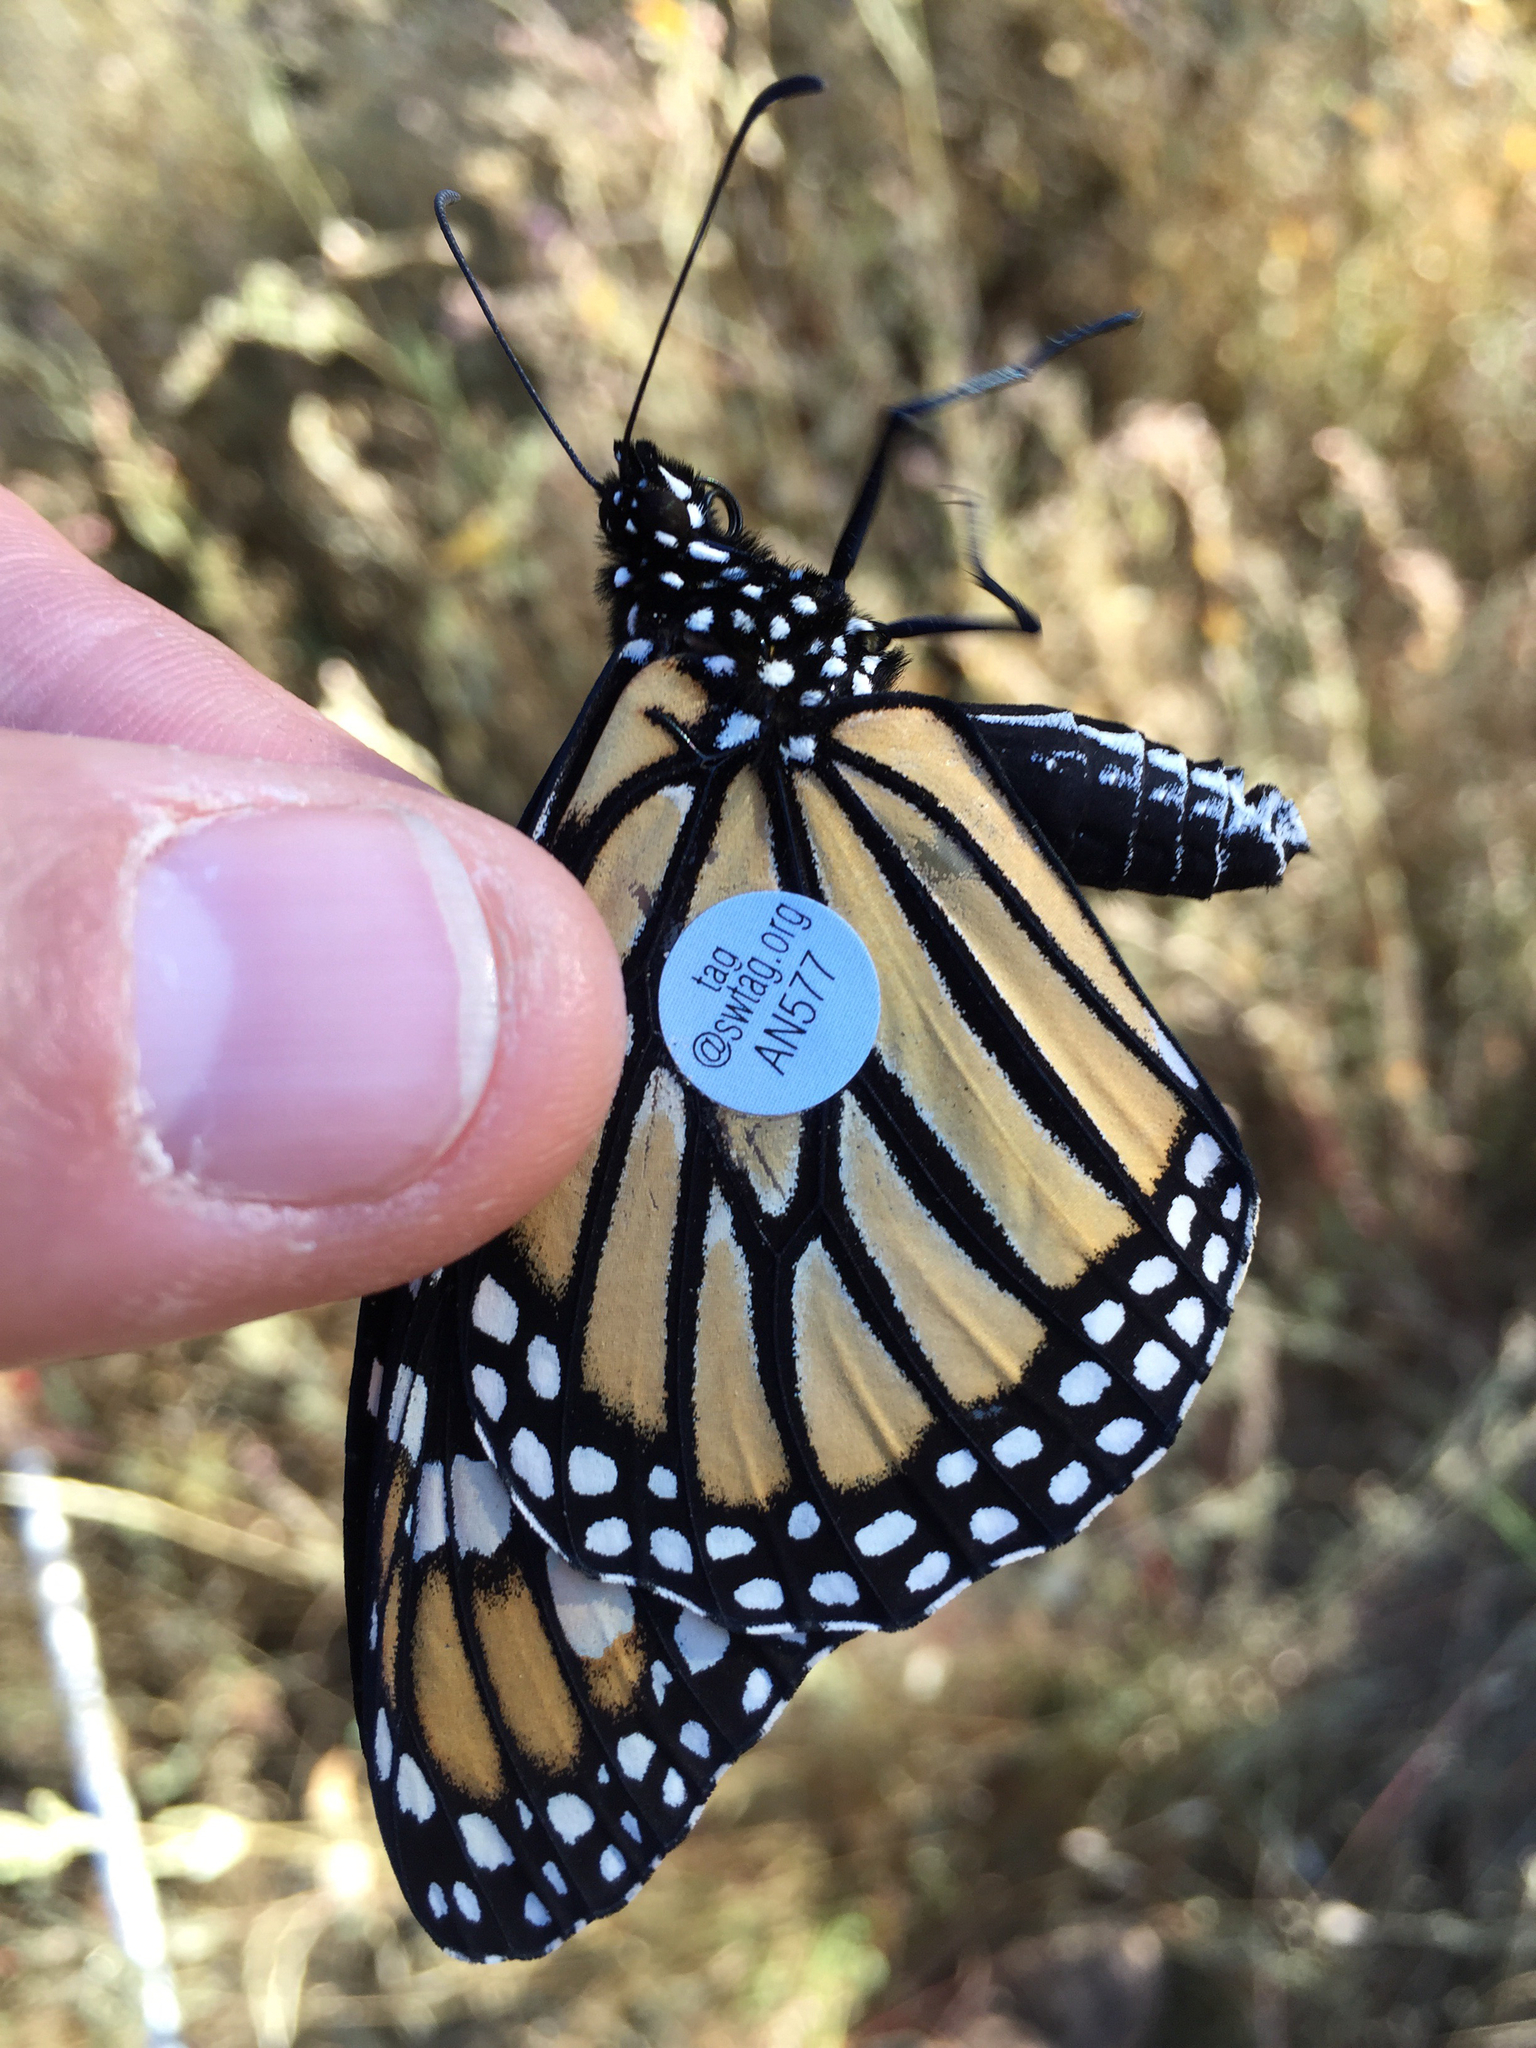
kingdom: Animalia
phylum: Arthropoda
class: Insecta
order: Lepidoptera
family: Nymphalidae
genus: Danaus
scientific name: Danaus plexippus
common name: Monarch
